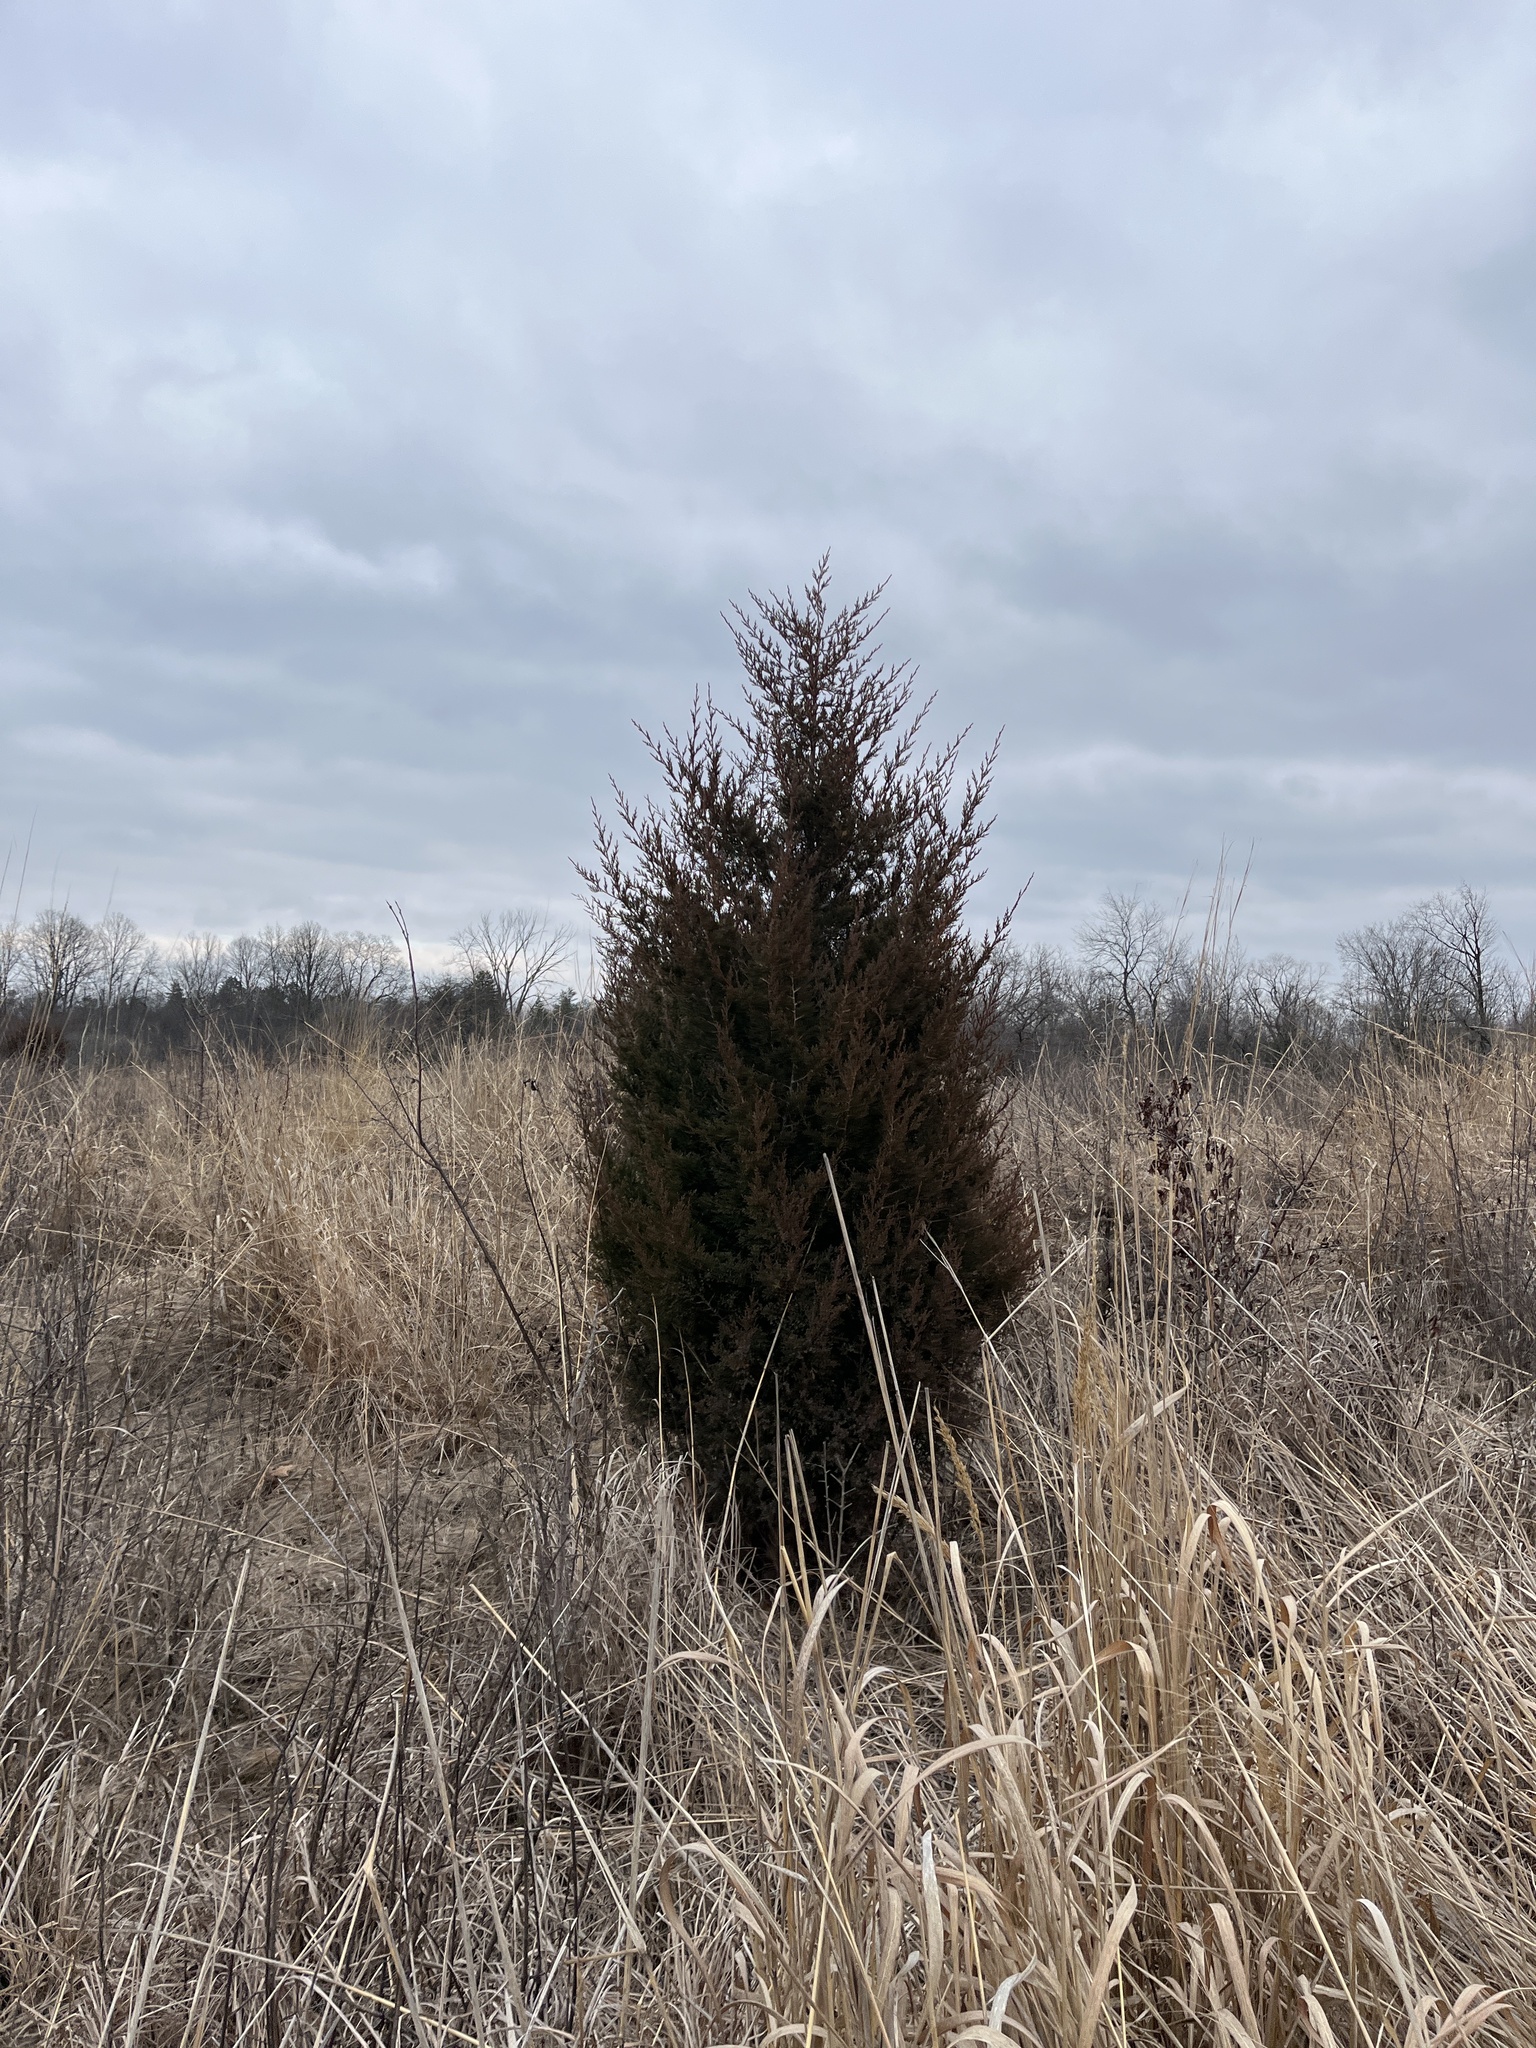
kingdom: Plantae
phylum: Tracheophyta
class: Pinopsida
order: Pinales
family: Cupressaceae
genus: Juniperus
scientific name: Juniperus virginiana
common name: Red juniper
